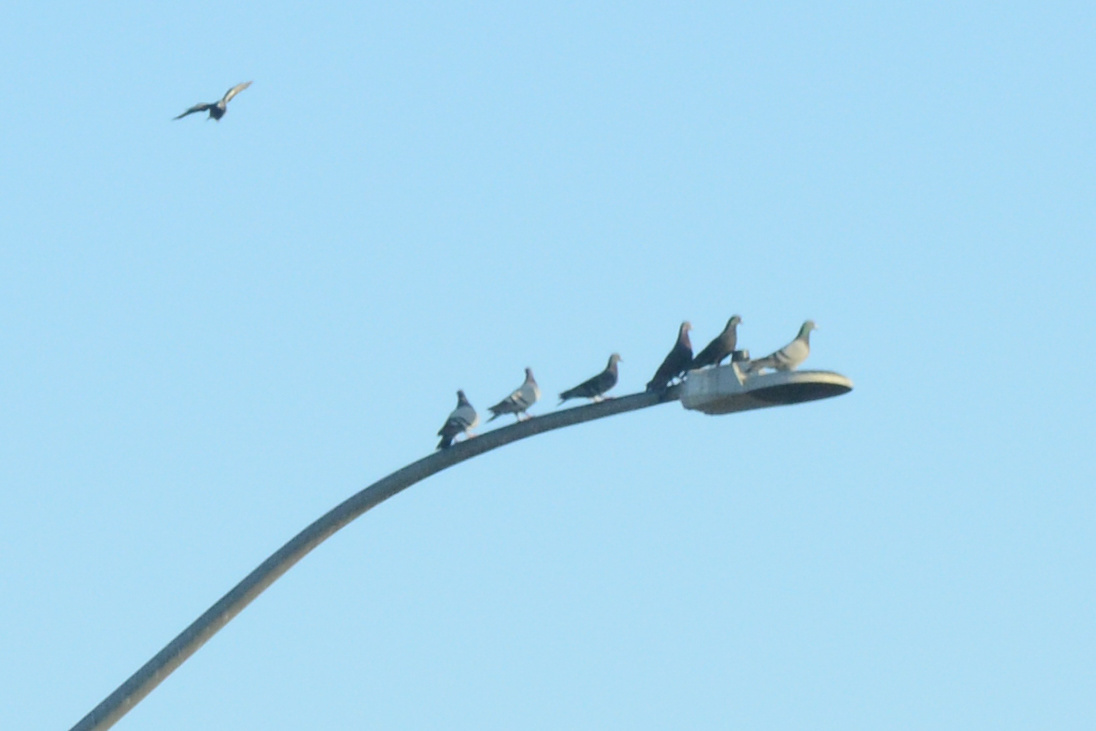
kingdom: Animalia
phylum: Chordata
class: Aves
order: Columbiformes
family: Columbidae
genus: Columba
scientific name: Columba livia
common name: Rock pigeon
